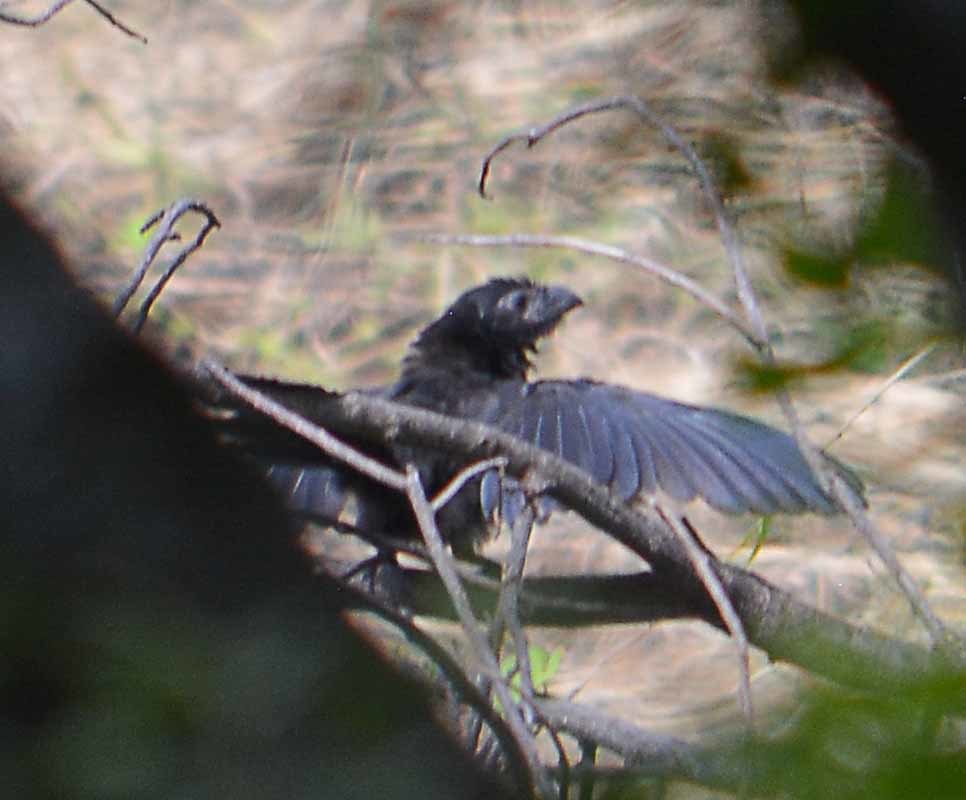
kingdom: Animalia
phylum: Chordata
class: Aves
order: Cuculiformes
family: Cuculidae
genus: Crotophaga
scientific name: Crotophaga sulcirostris
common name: Groove-billed ani
